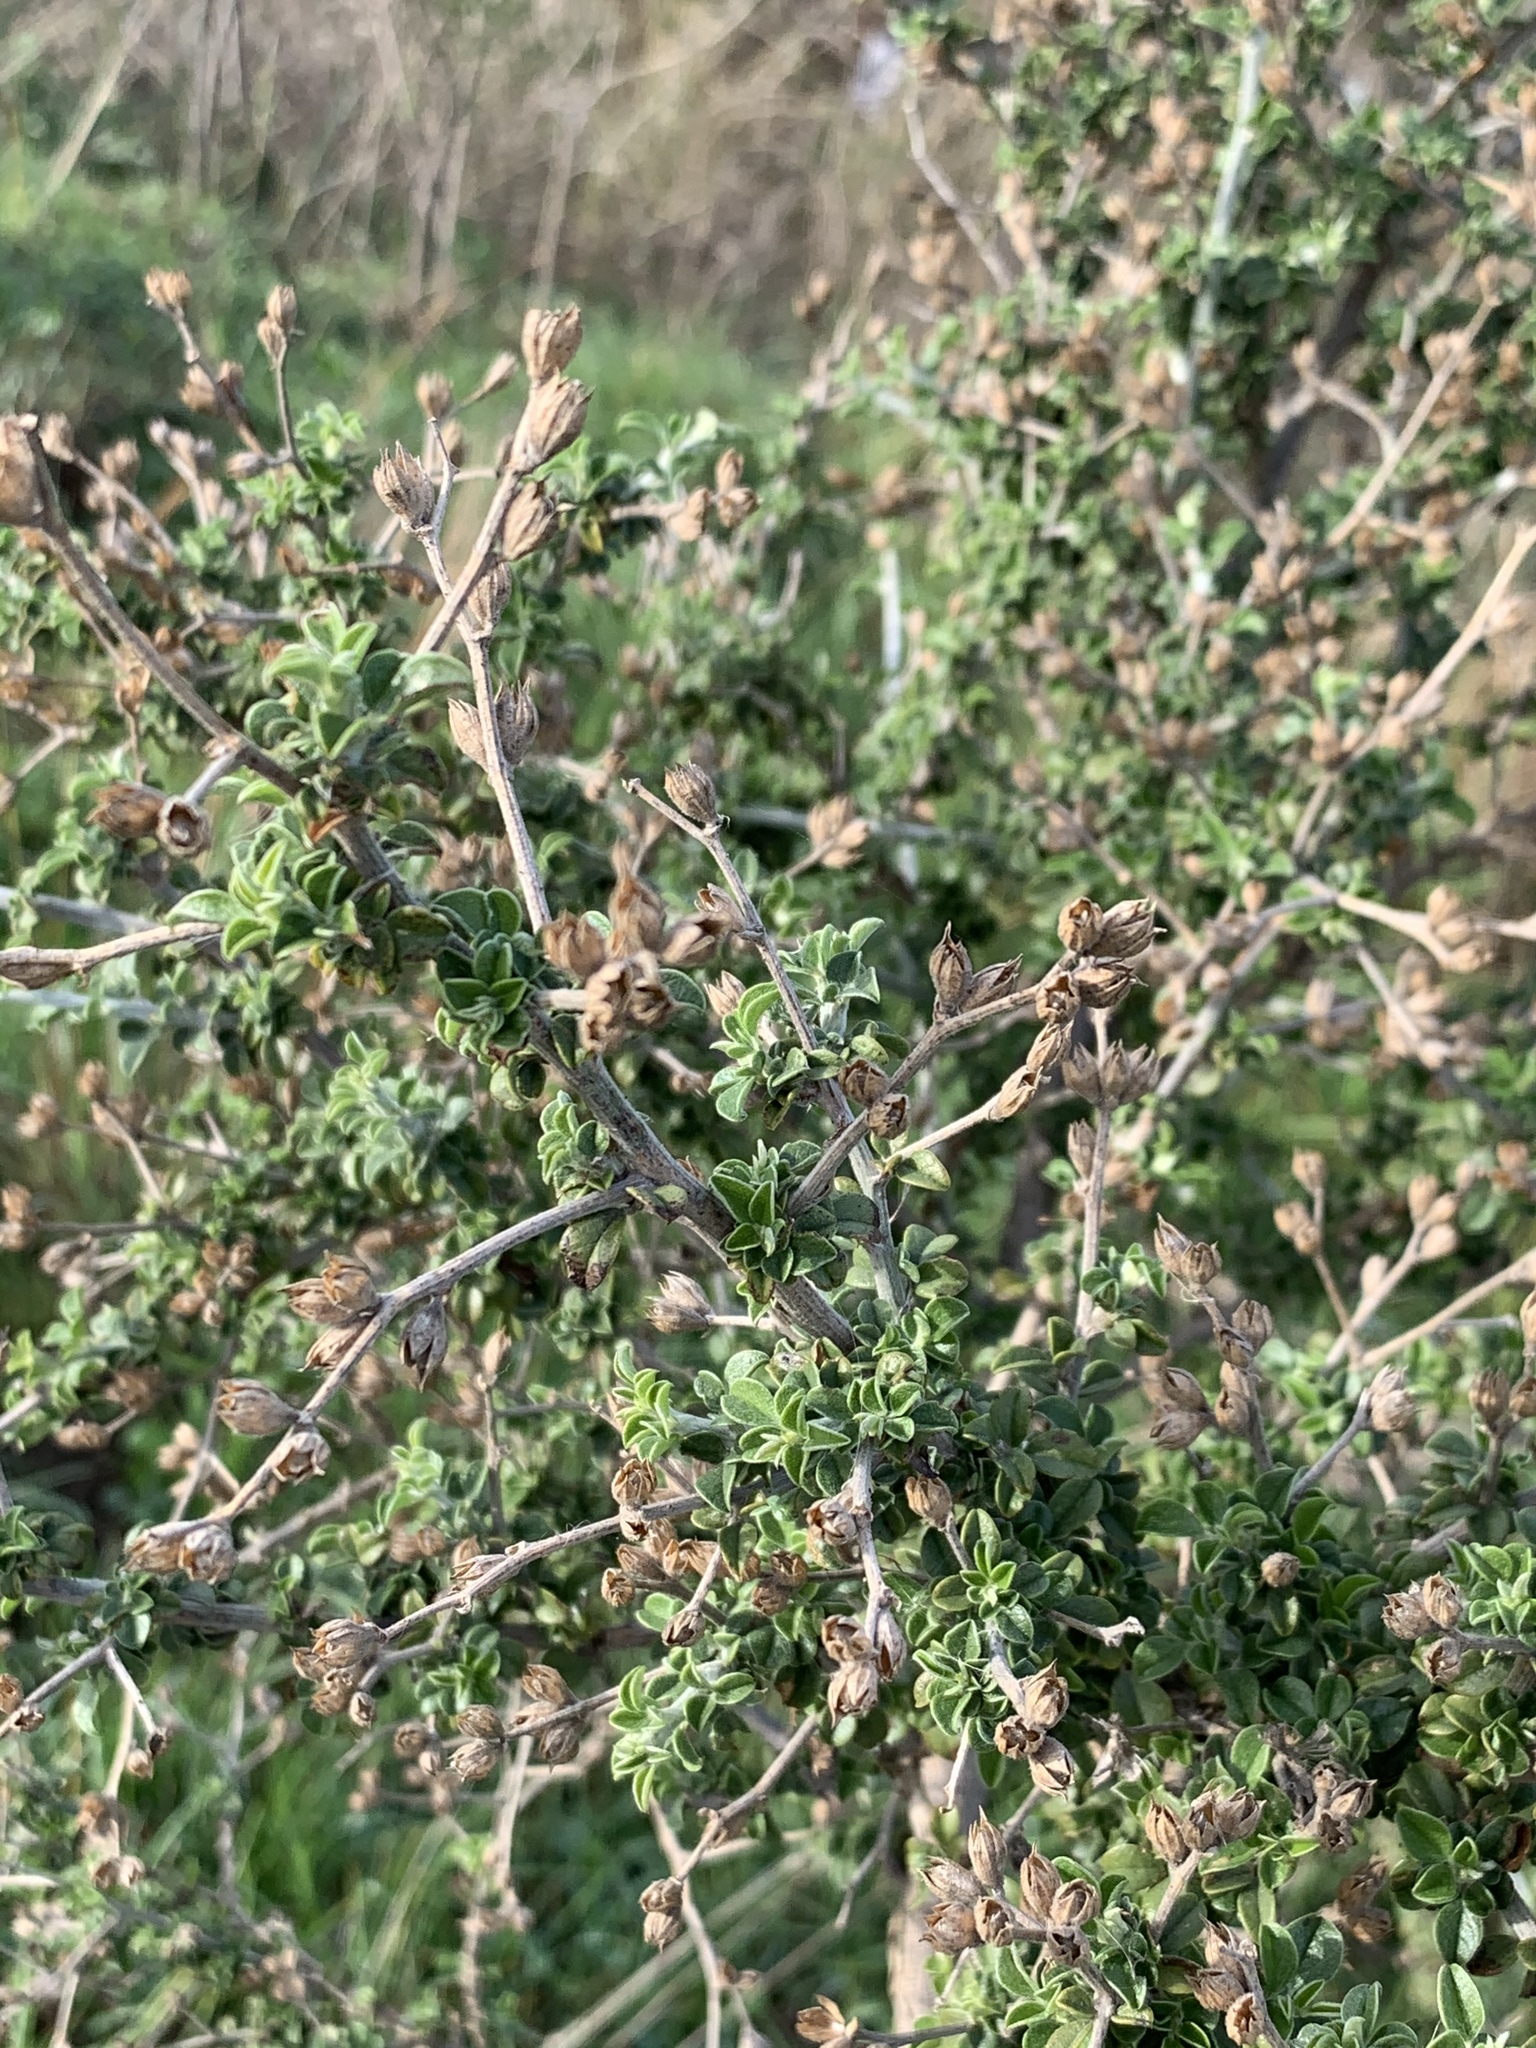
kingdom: Plantae
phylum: Tracheophyta
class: Magnoliopsida
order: Fabales
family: Fabaceae
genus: Psoralea
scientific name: Psoralea hirta
